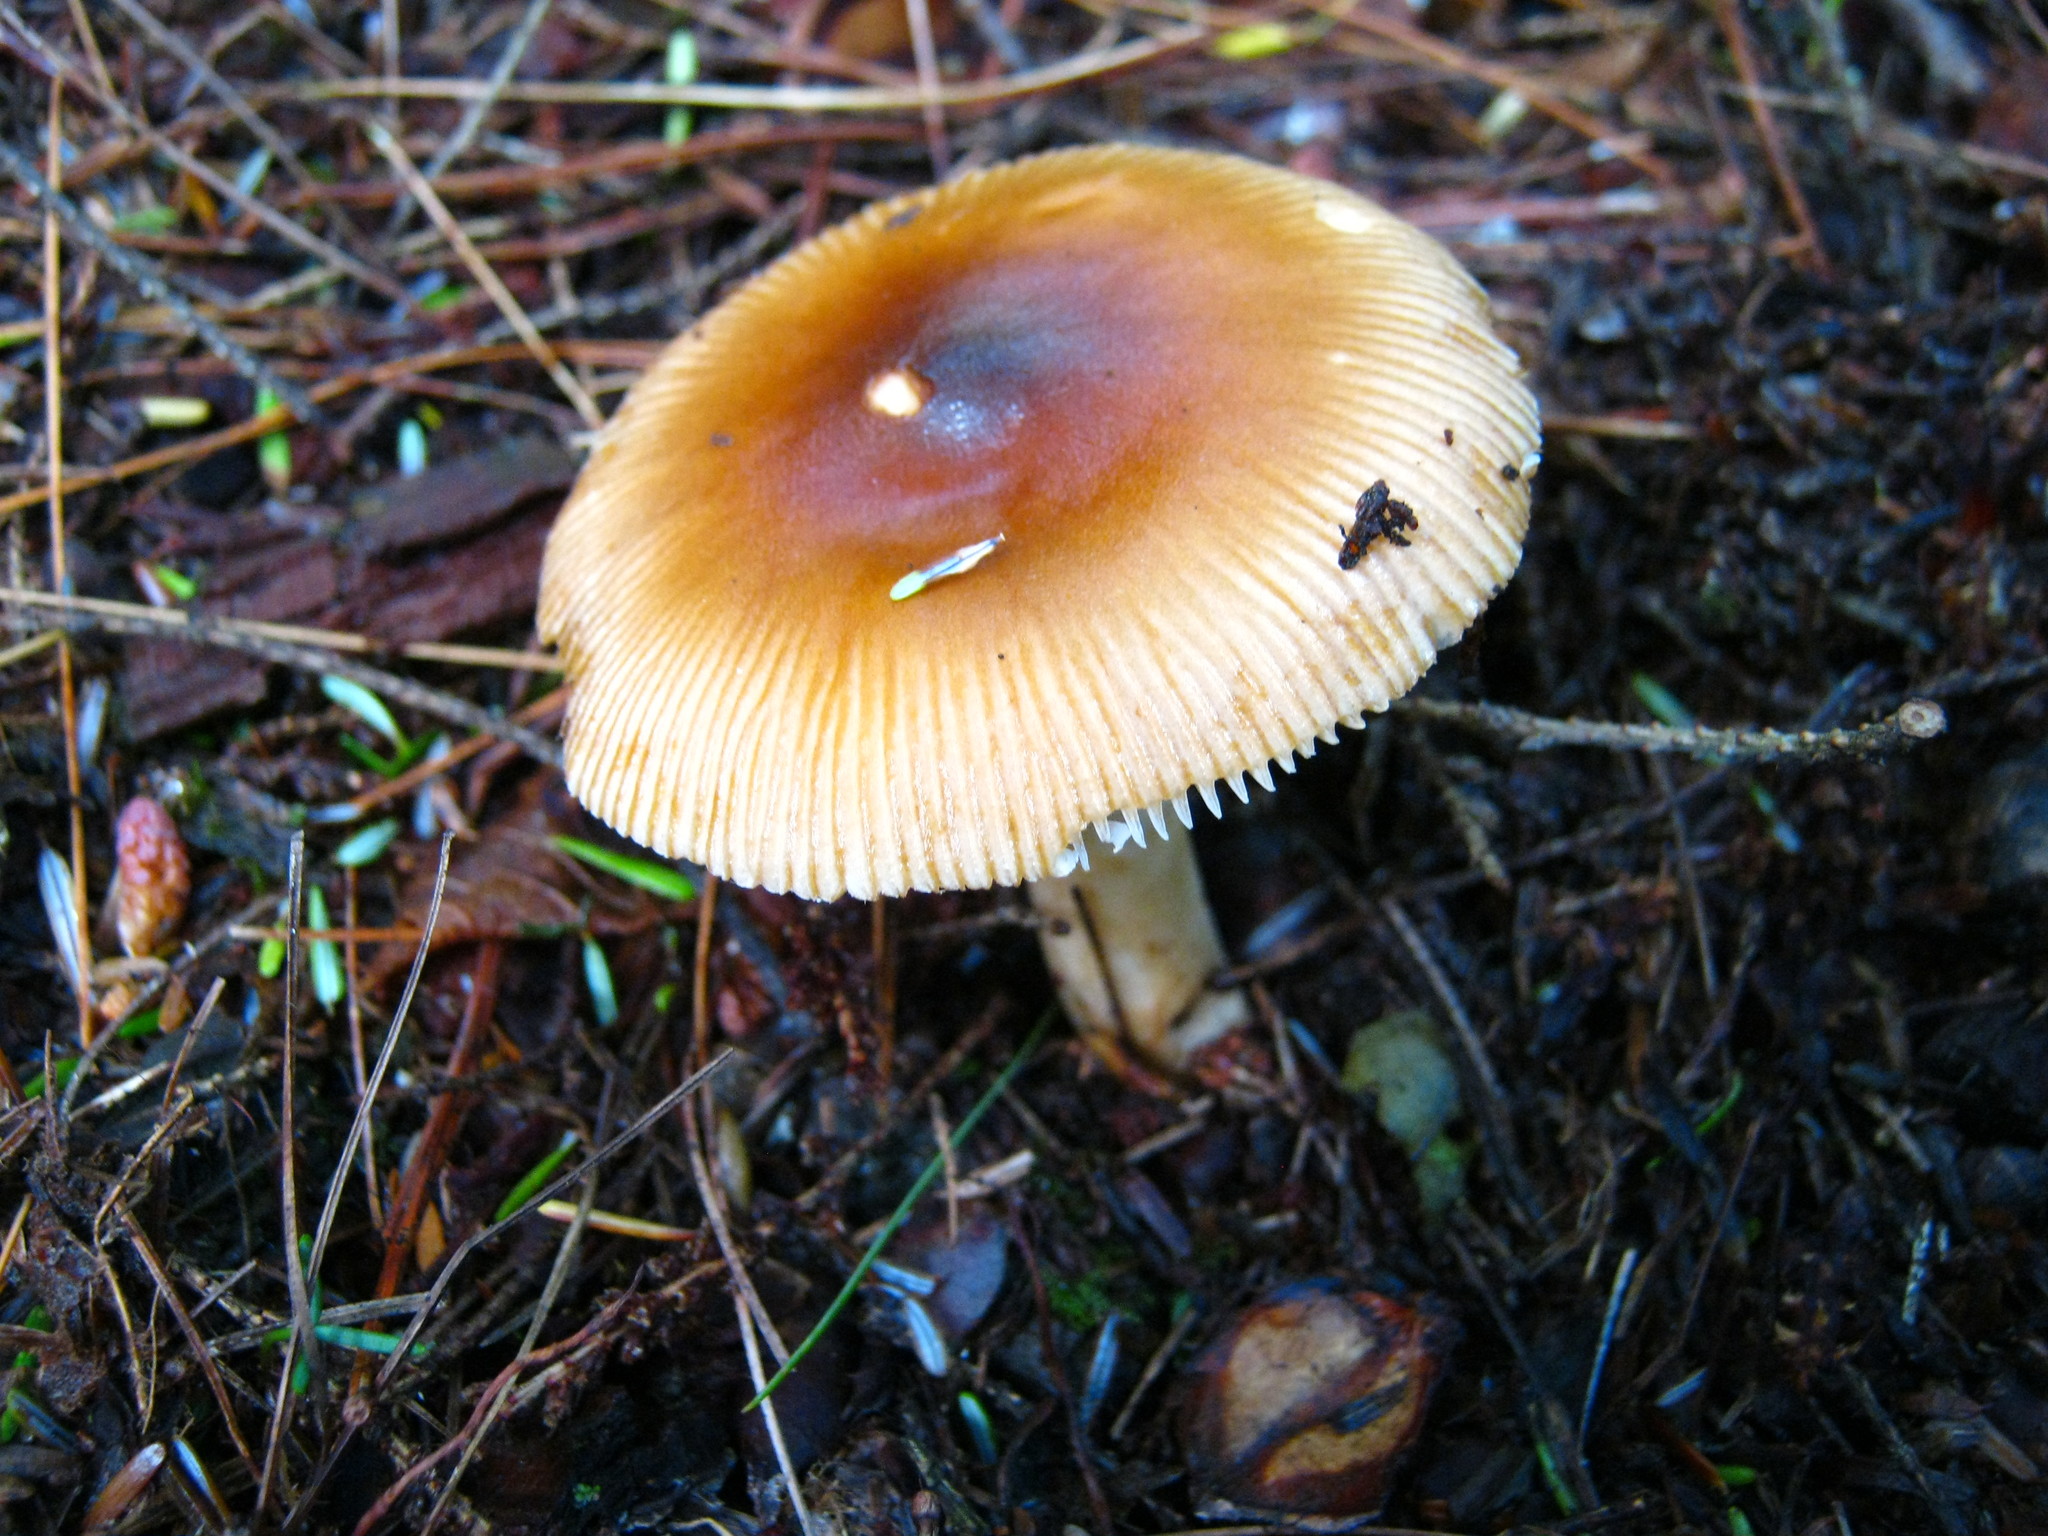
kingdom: Fungi
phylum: Basidiomycota
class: Agaricomycetes
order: Agaricales
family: Amanitaceae
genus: Amanita
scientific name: Amanita fulva
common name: Tawny grisette
